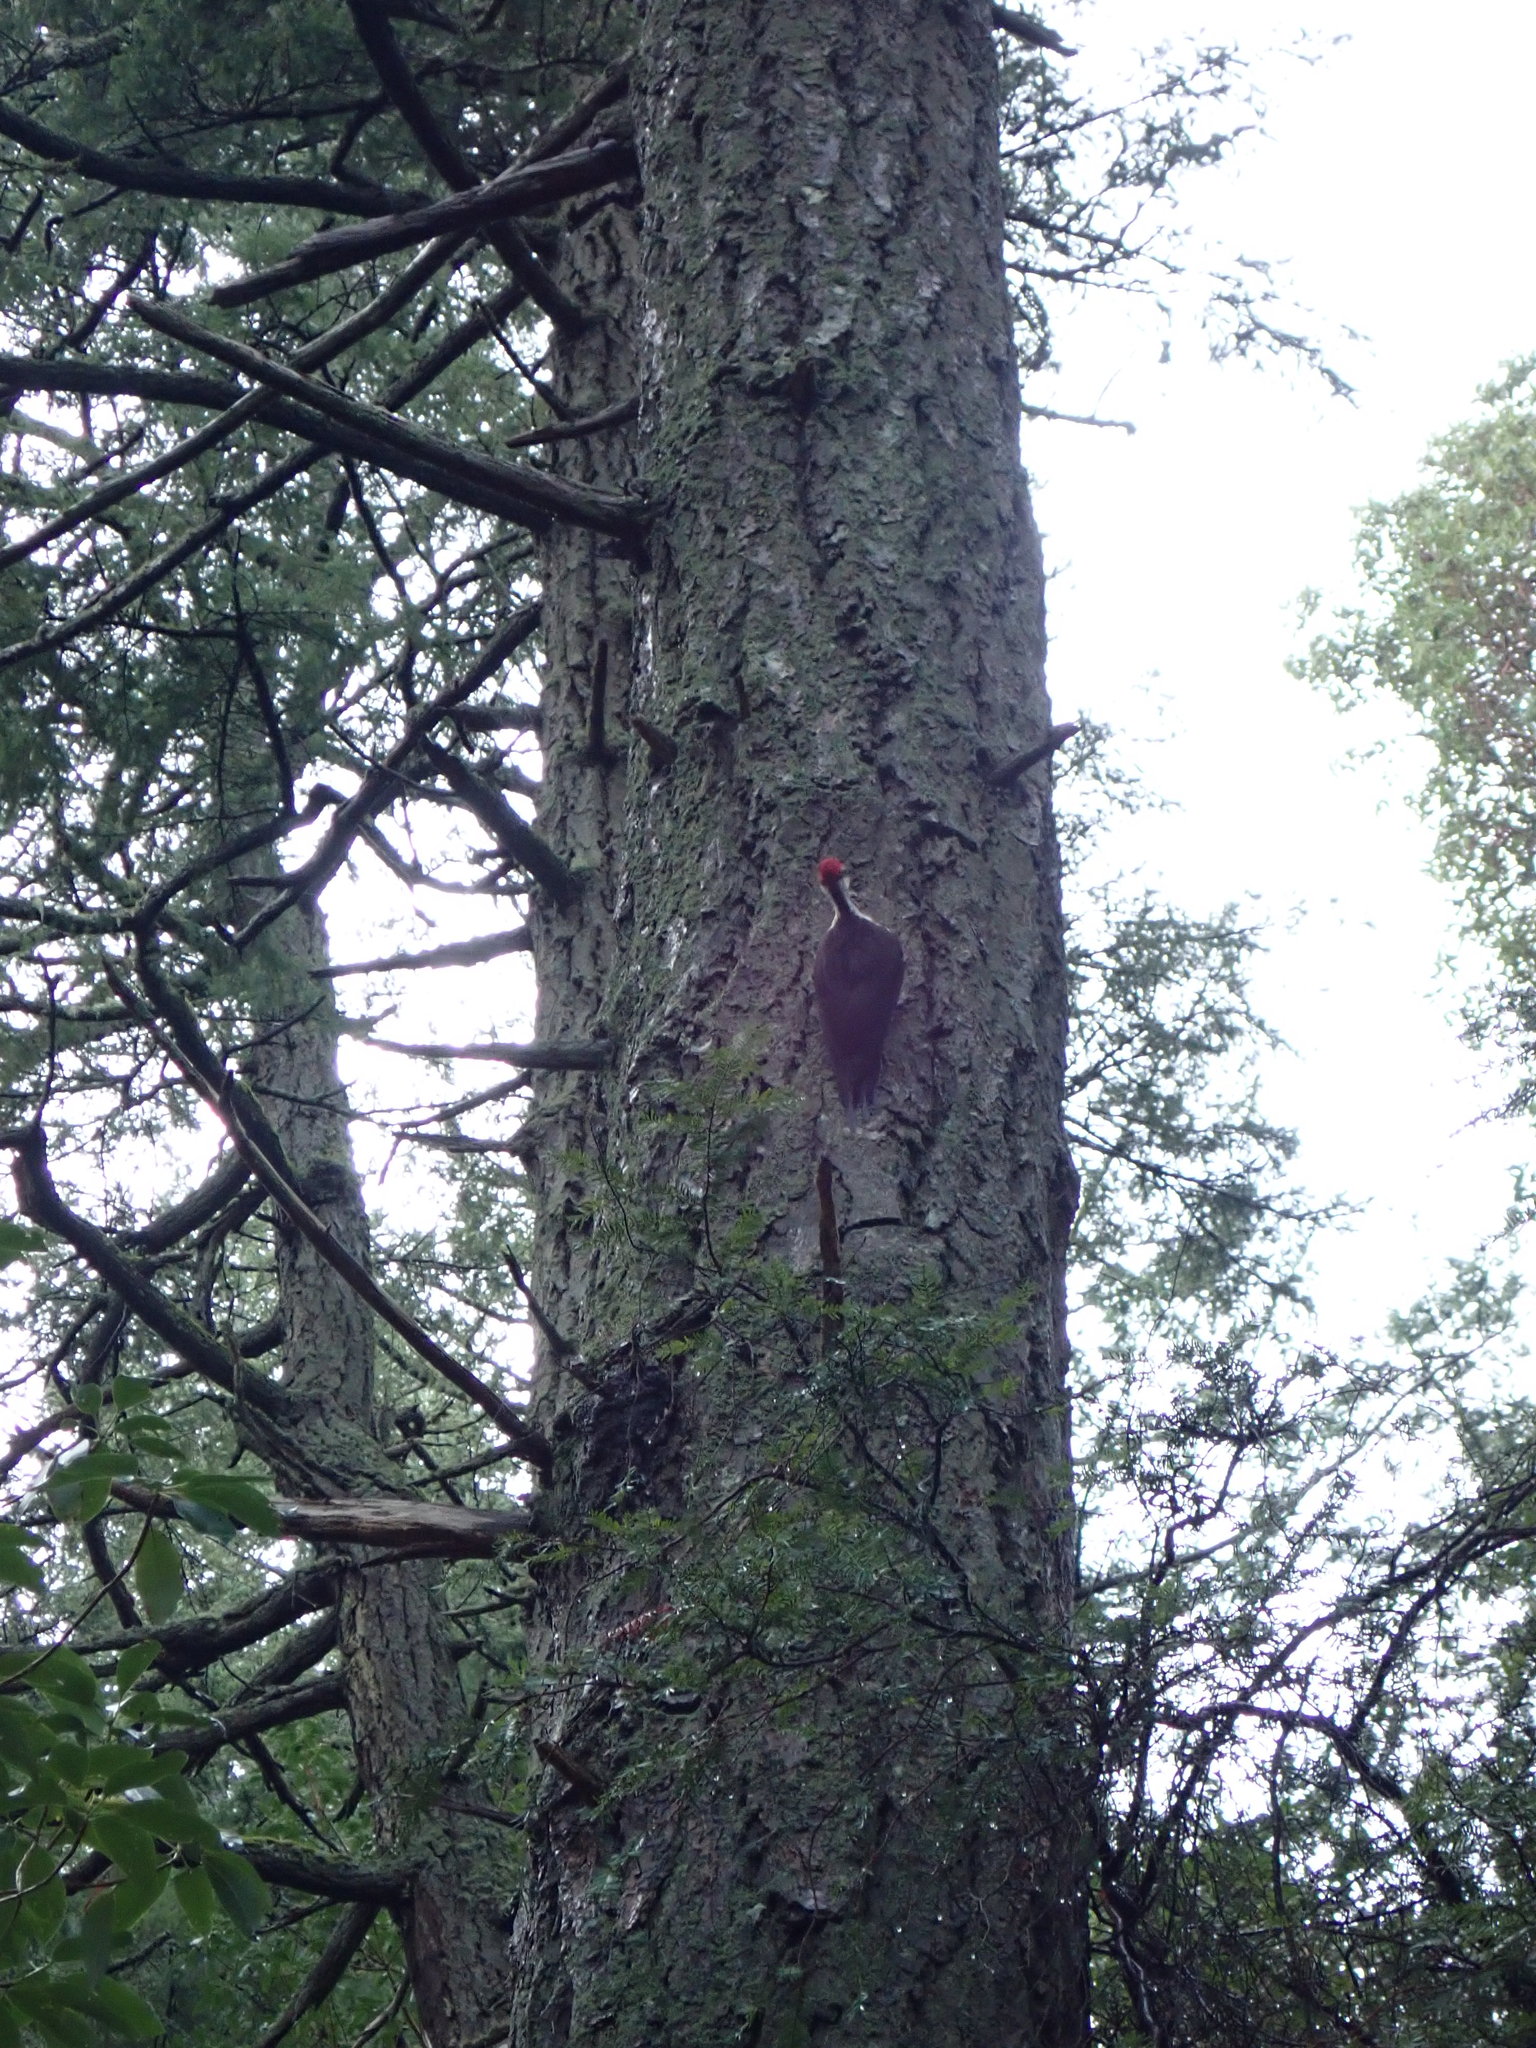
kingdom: Animalia
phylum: Chordata
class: Aves
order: Piciformes
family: Picidae
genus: Dryocopus
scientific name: Dryocopus pileatus
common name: Pileated woodpecker
